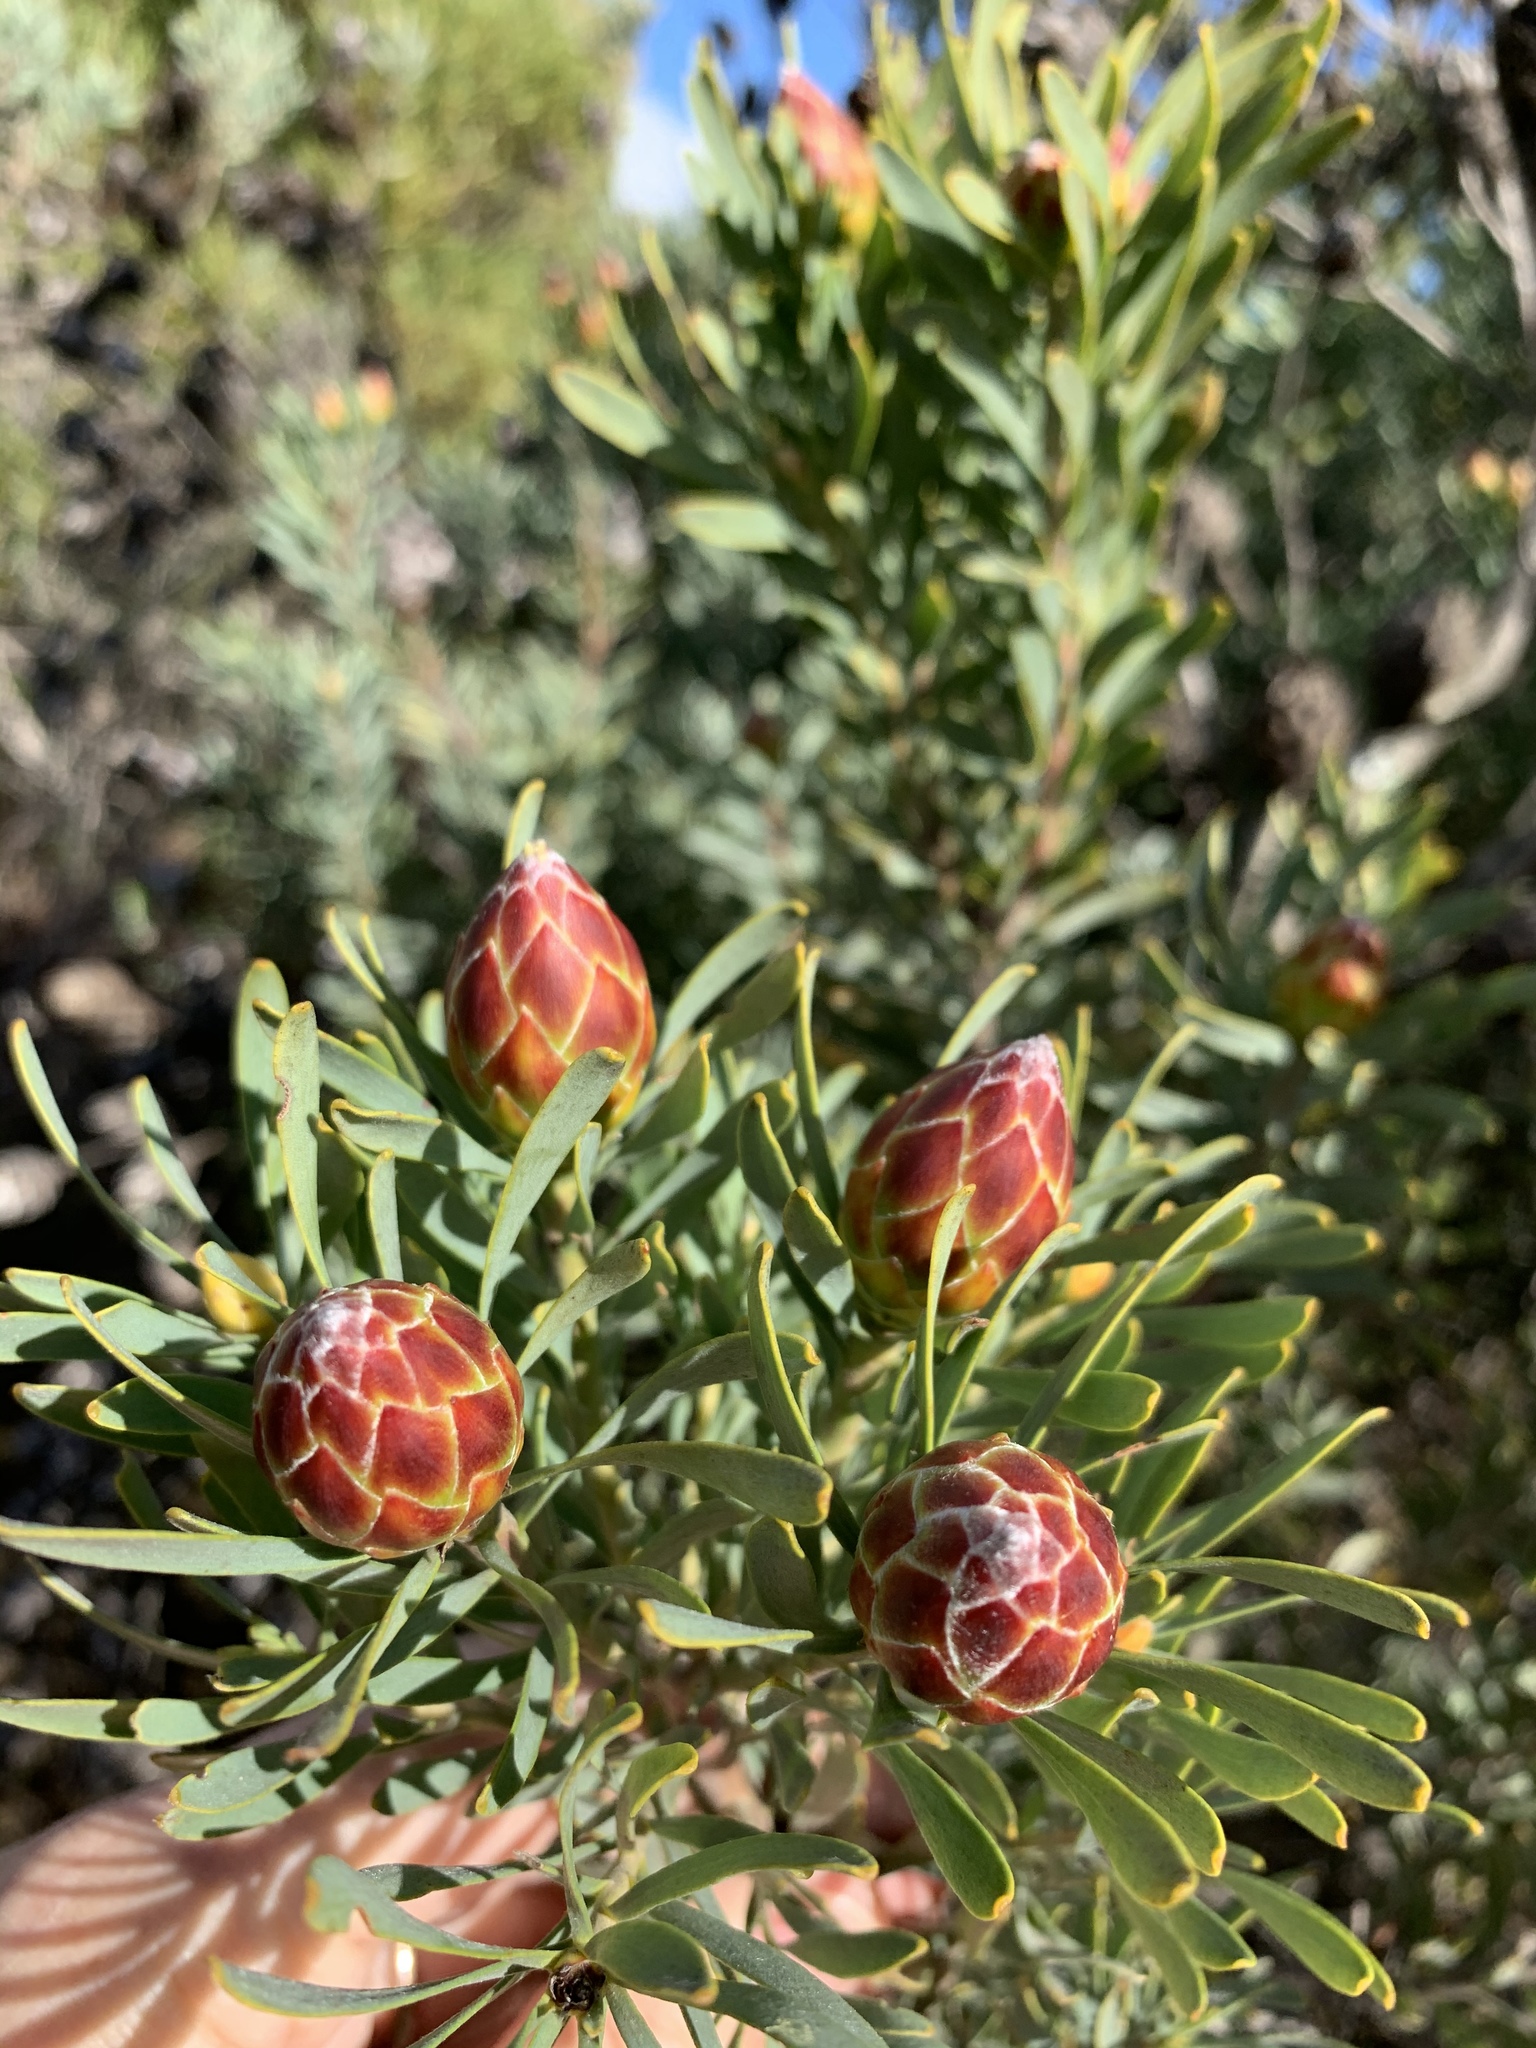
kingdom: Plantae
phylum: Tracheophyta
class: Magnoliopsida
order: Proteales
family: Proteaceae
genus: Leucadendron
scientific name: Leucadendron rubrum
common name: Spinning top
